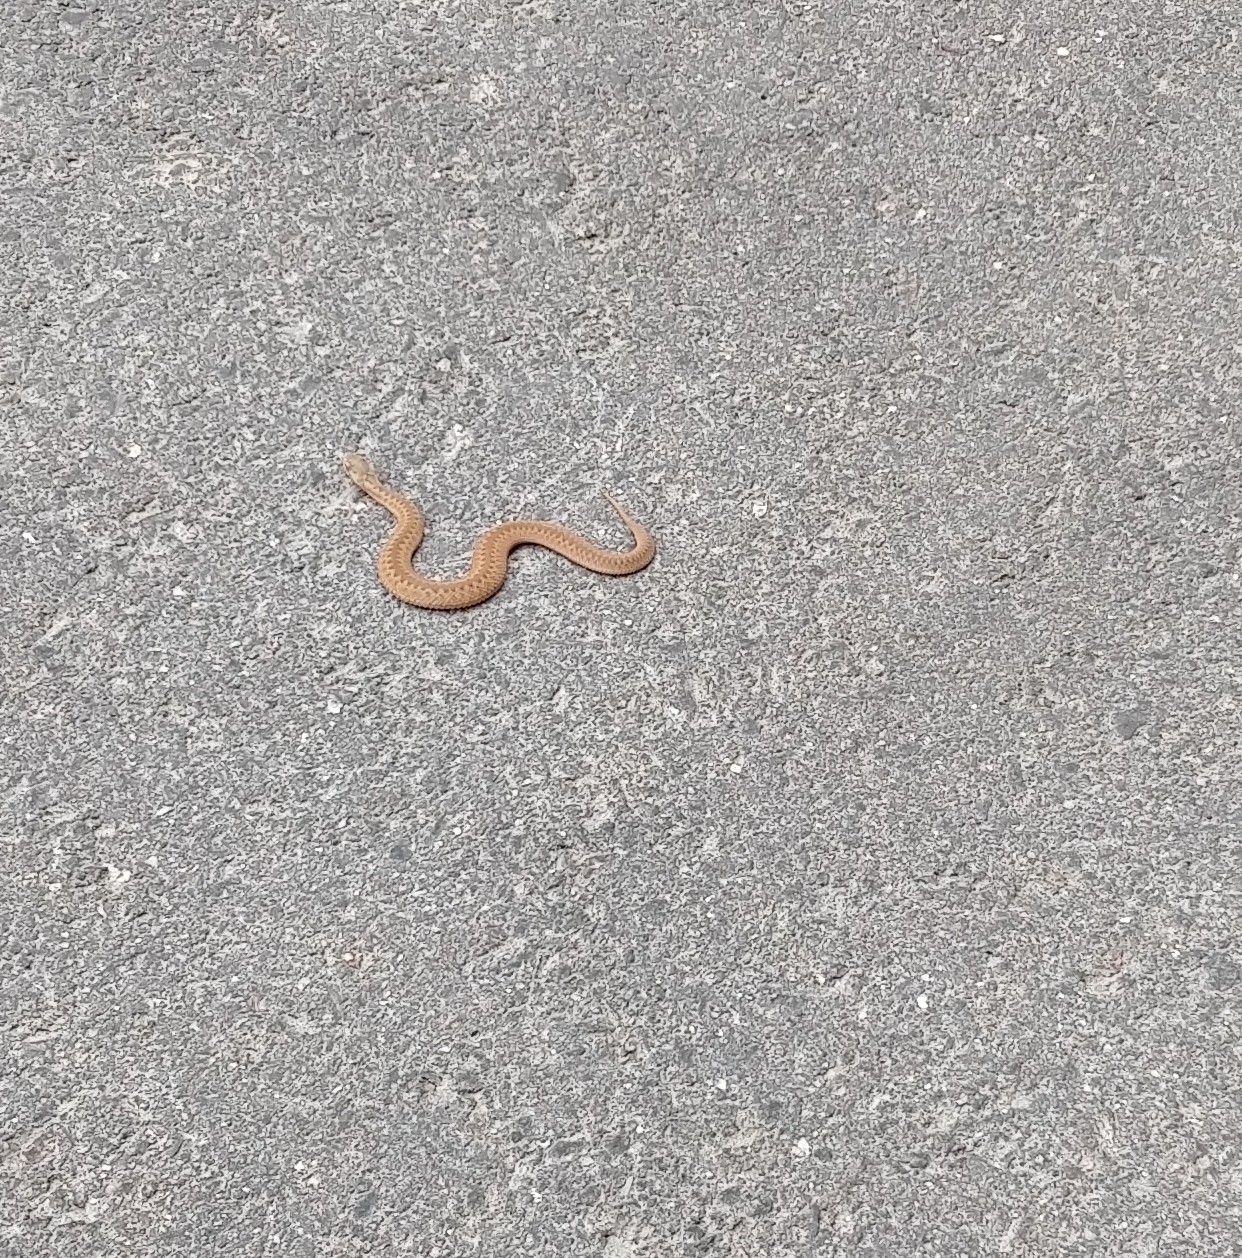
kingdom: Animalia
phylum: Chordata
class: Squamata
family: Viperidae
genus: Vipera
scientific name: Vipera berus
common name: Adder
